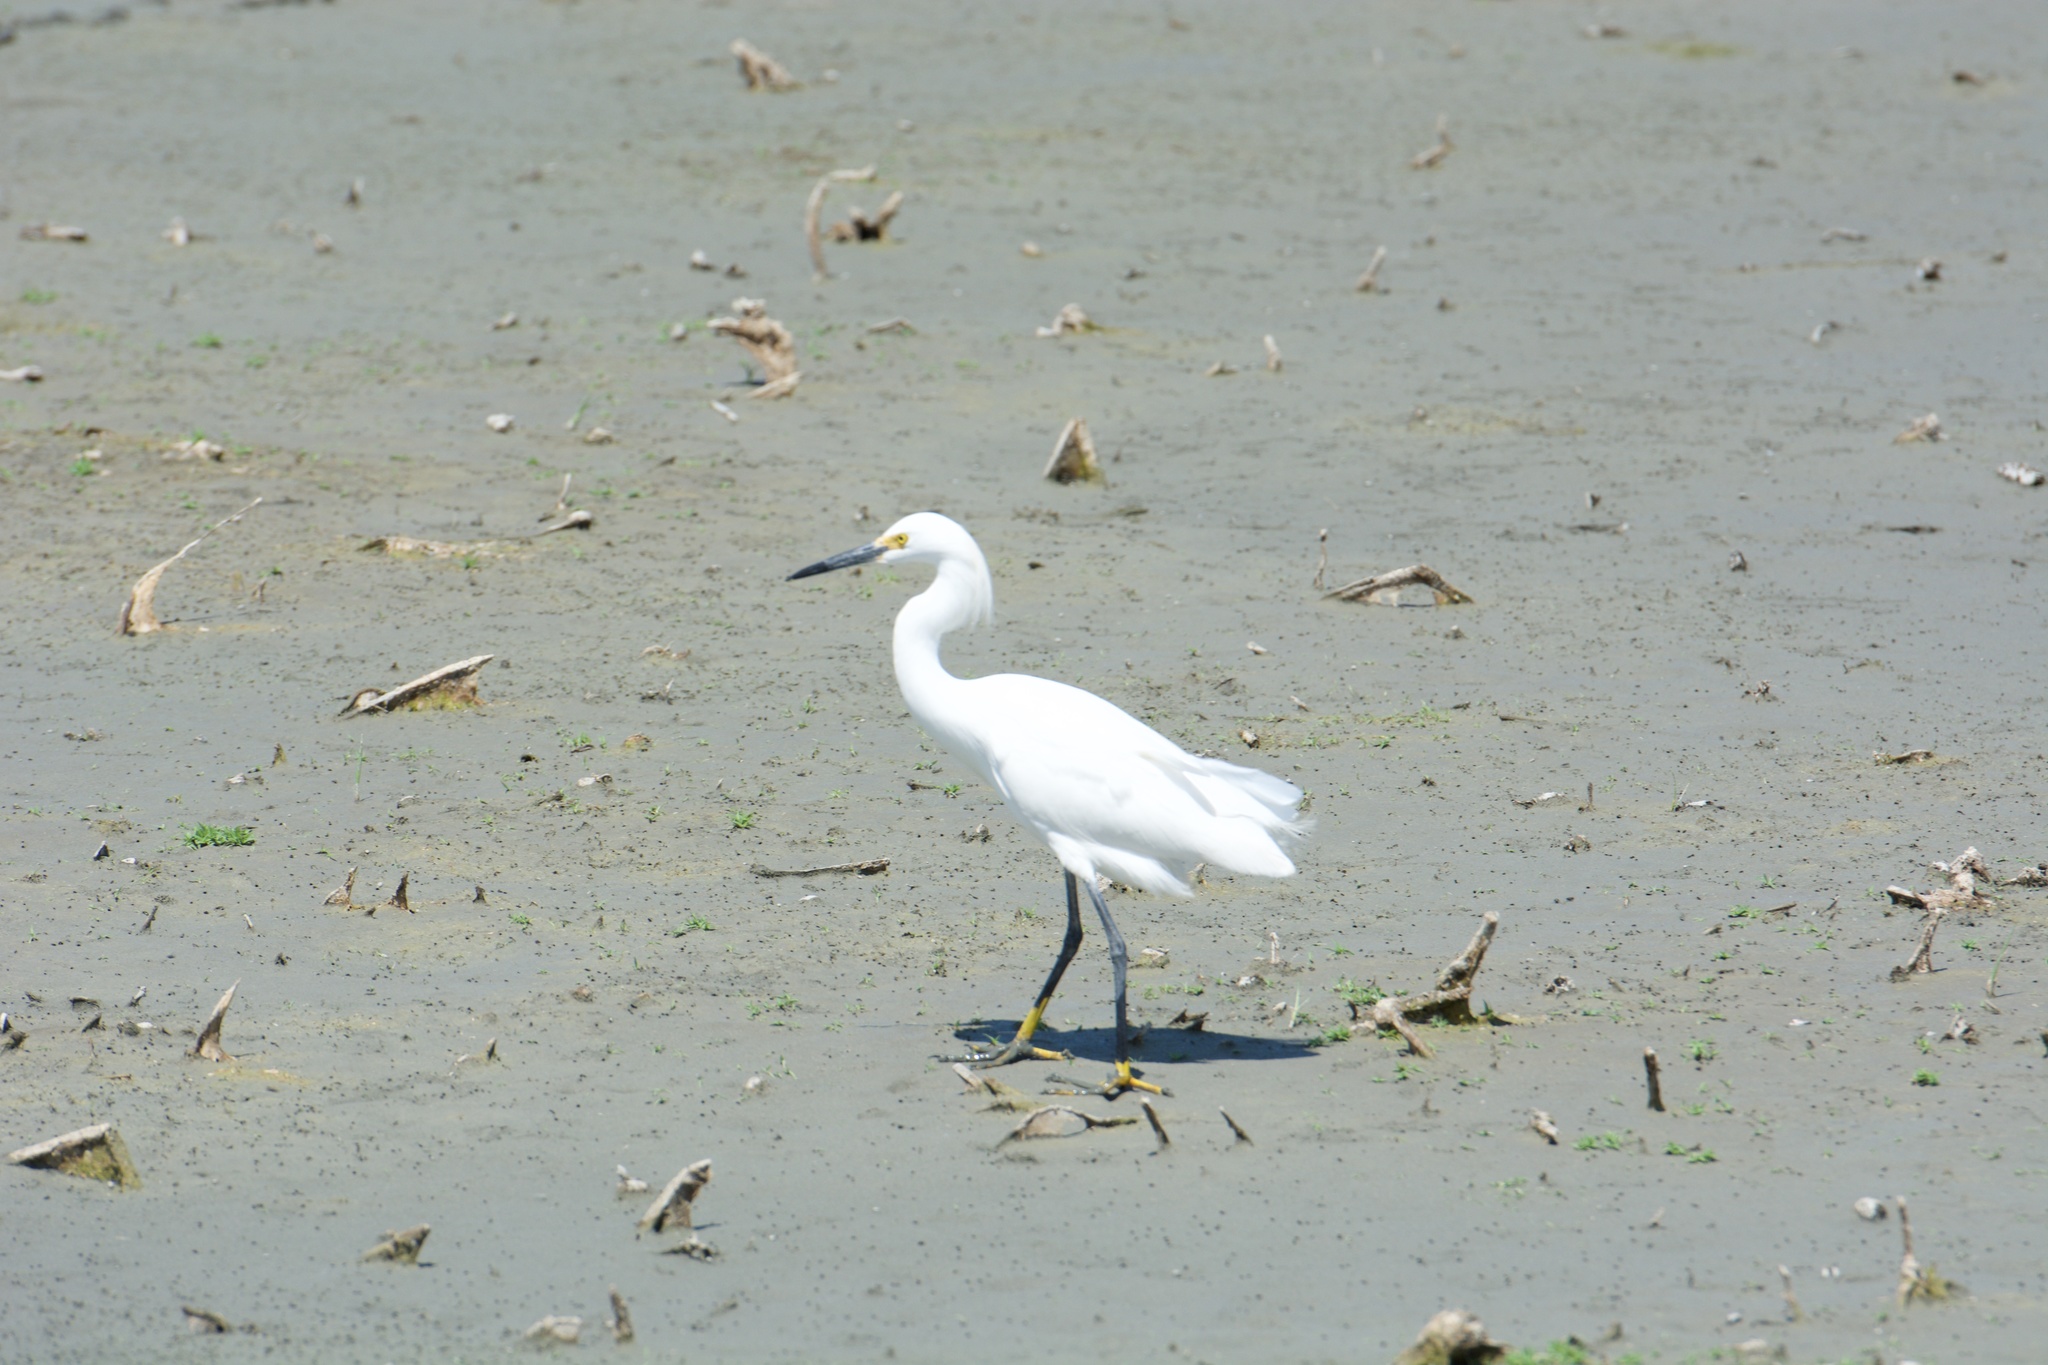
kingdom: Animalia
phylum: Chordata
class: Aves
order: Pelecaniformes
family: Ardeidae
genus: Egretta
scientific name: Egretta thula
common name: Snowy egret
